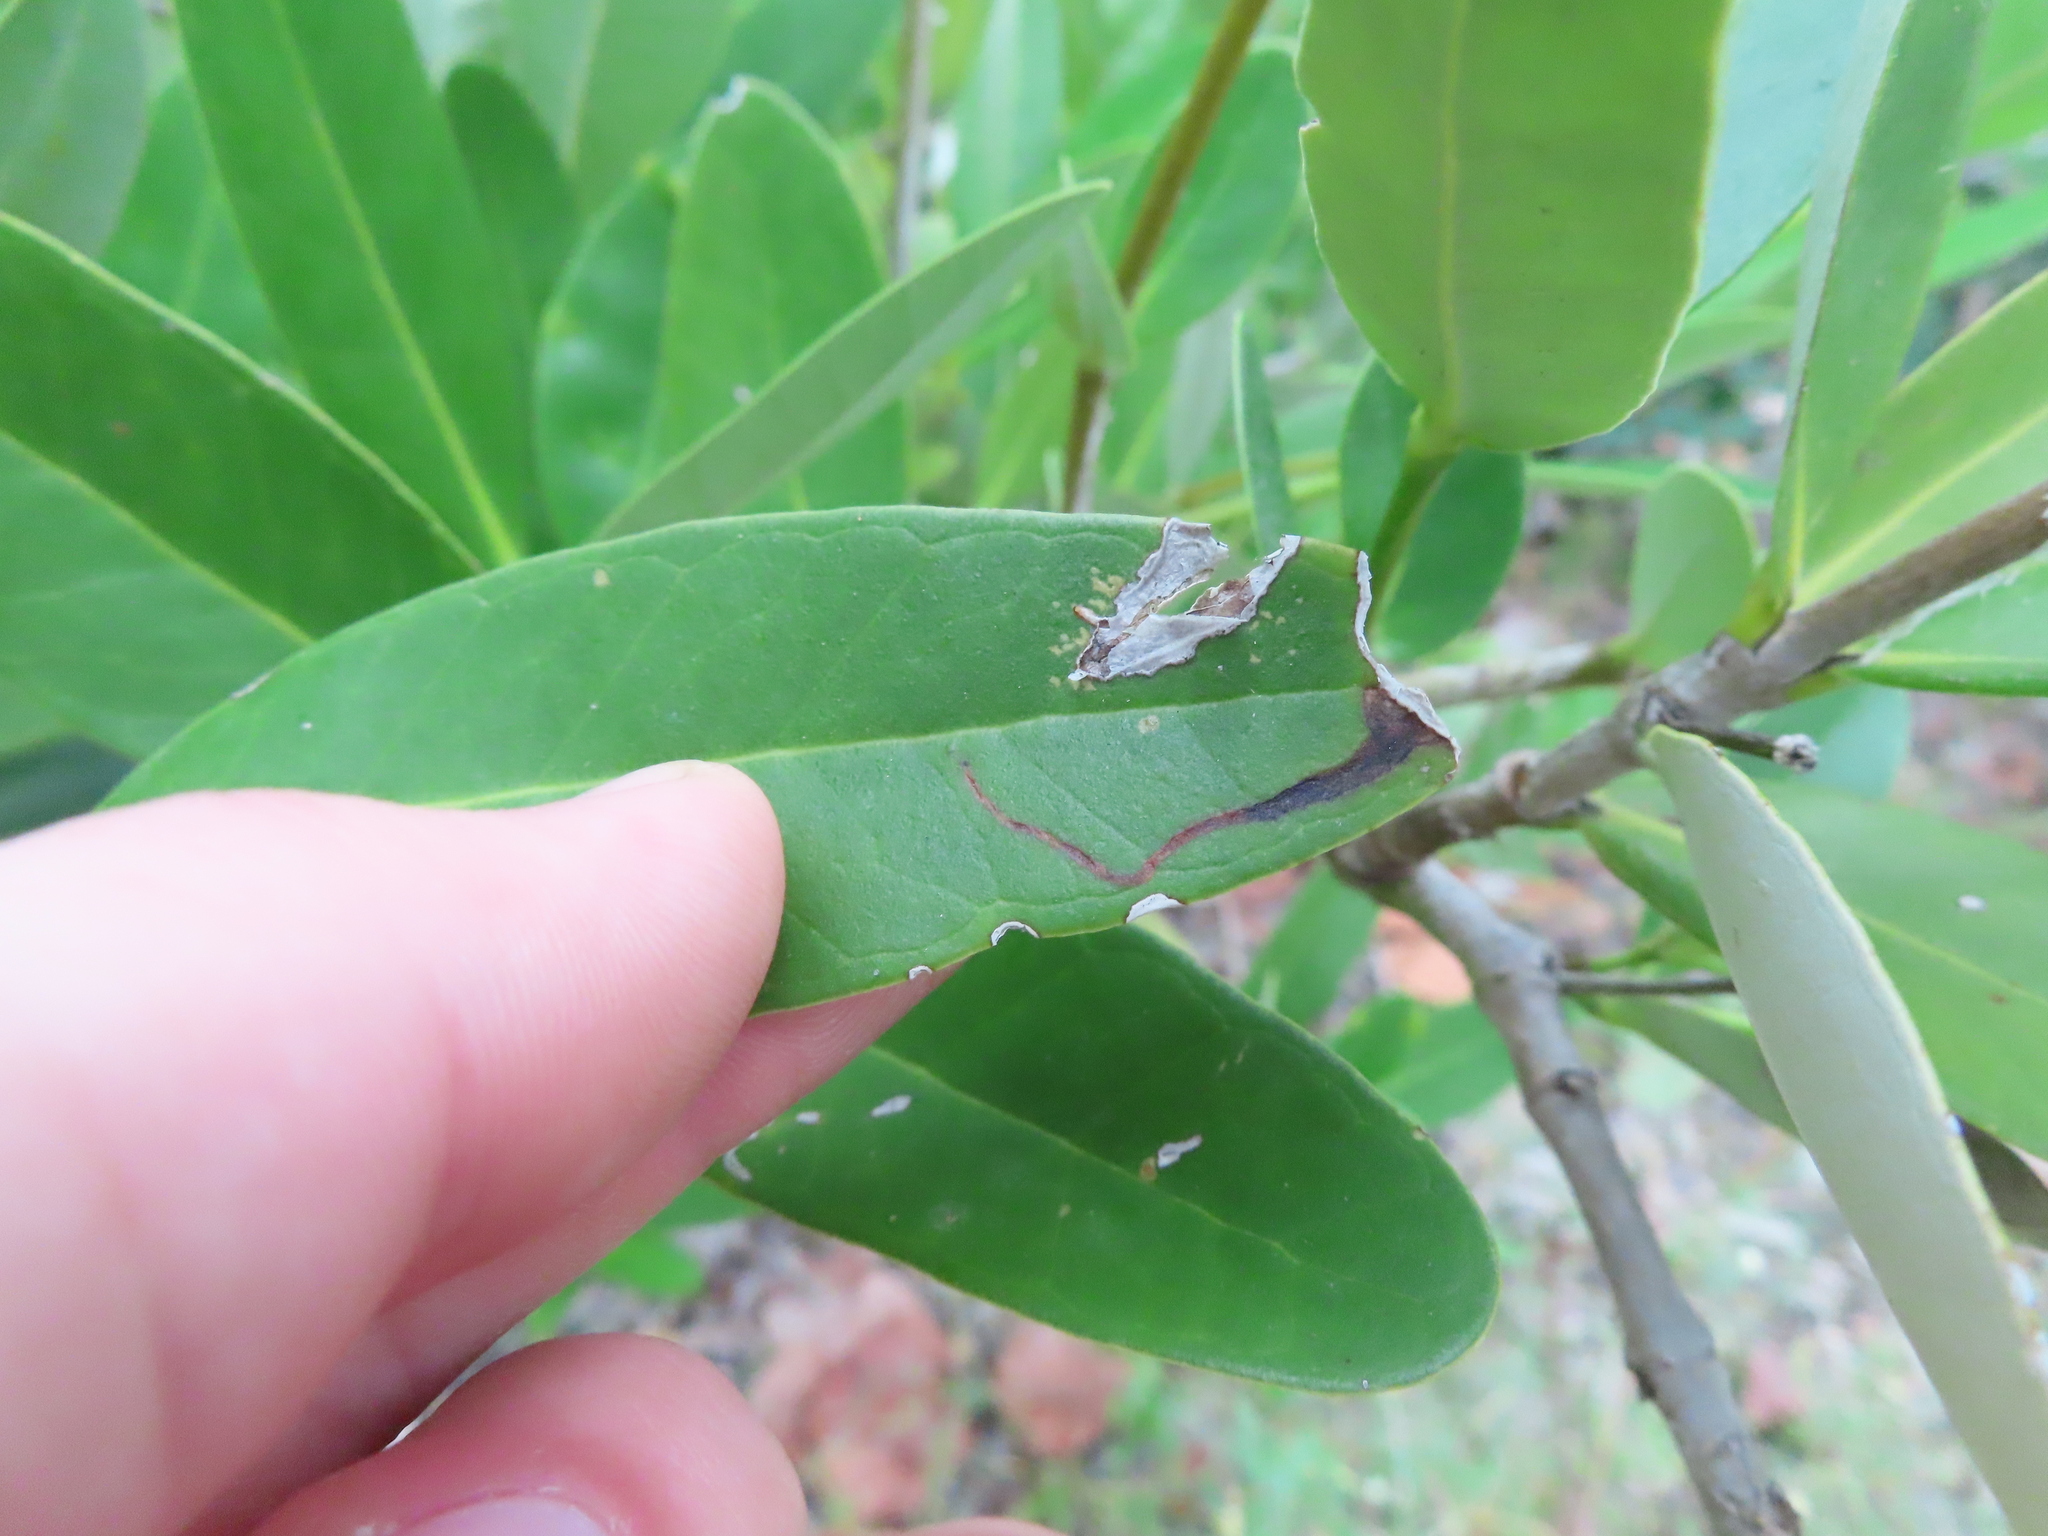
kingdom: Animalia
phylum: Arthropoda
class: Insecta
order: Diptera
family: Agromyzidae
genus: Liriomyza
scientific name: Liriomyza avicenniae
